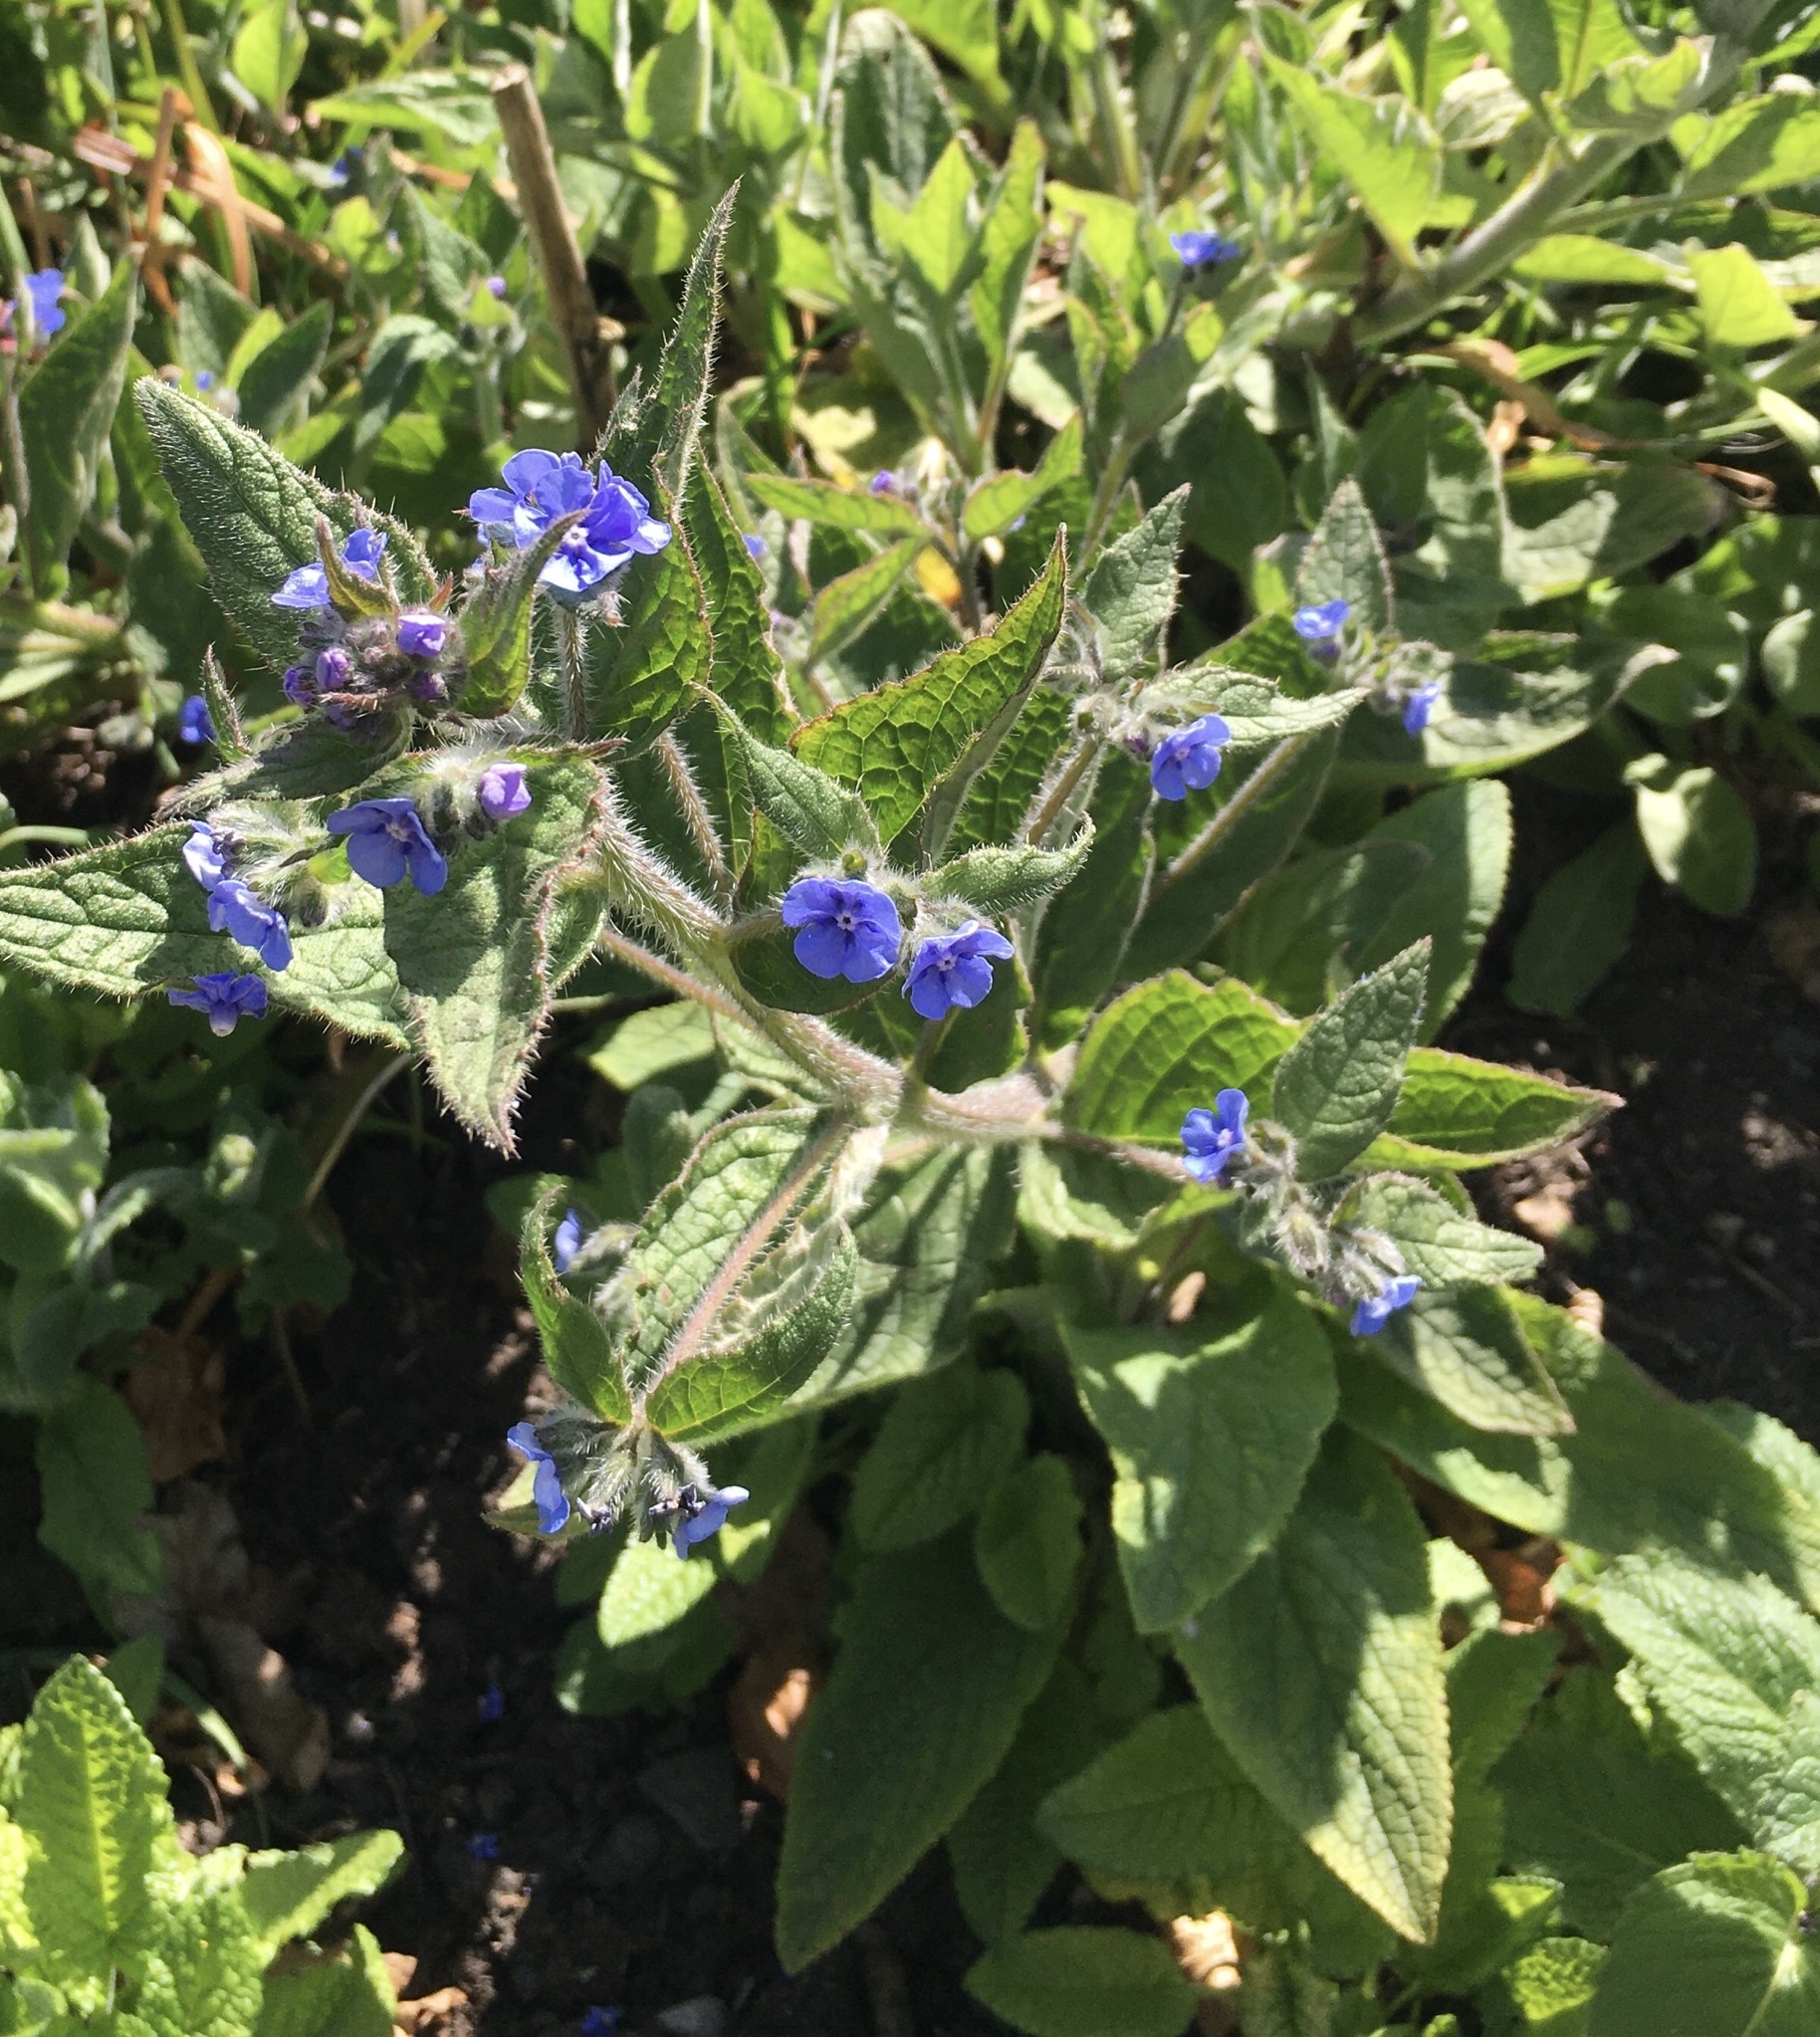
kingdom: Plantae
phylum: Tracheophyta
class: Magnoliopsida
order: Boraginales
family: Boraginaceae
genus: Pentaglottis
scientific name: Pentaglottis sempervirens
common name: Green alkanet
